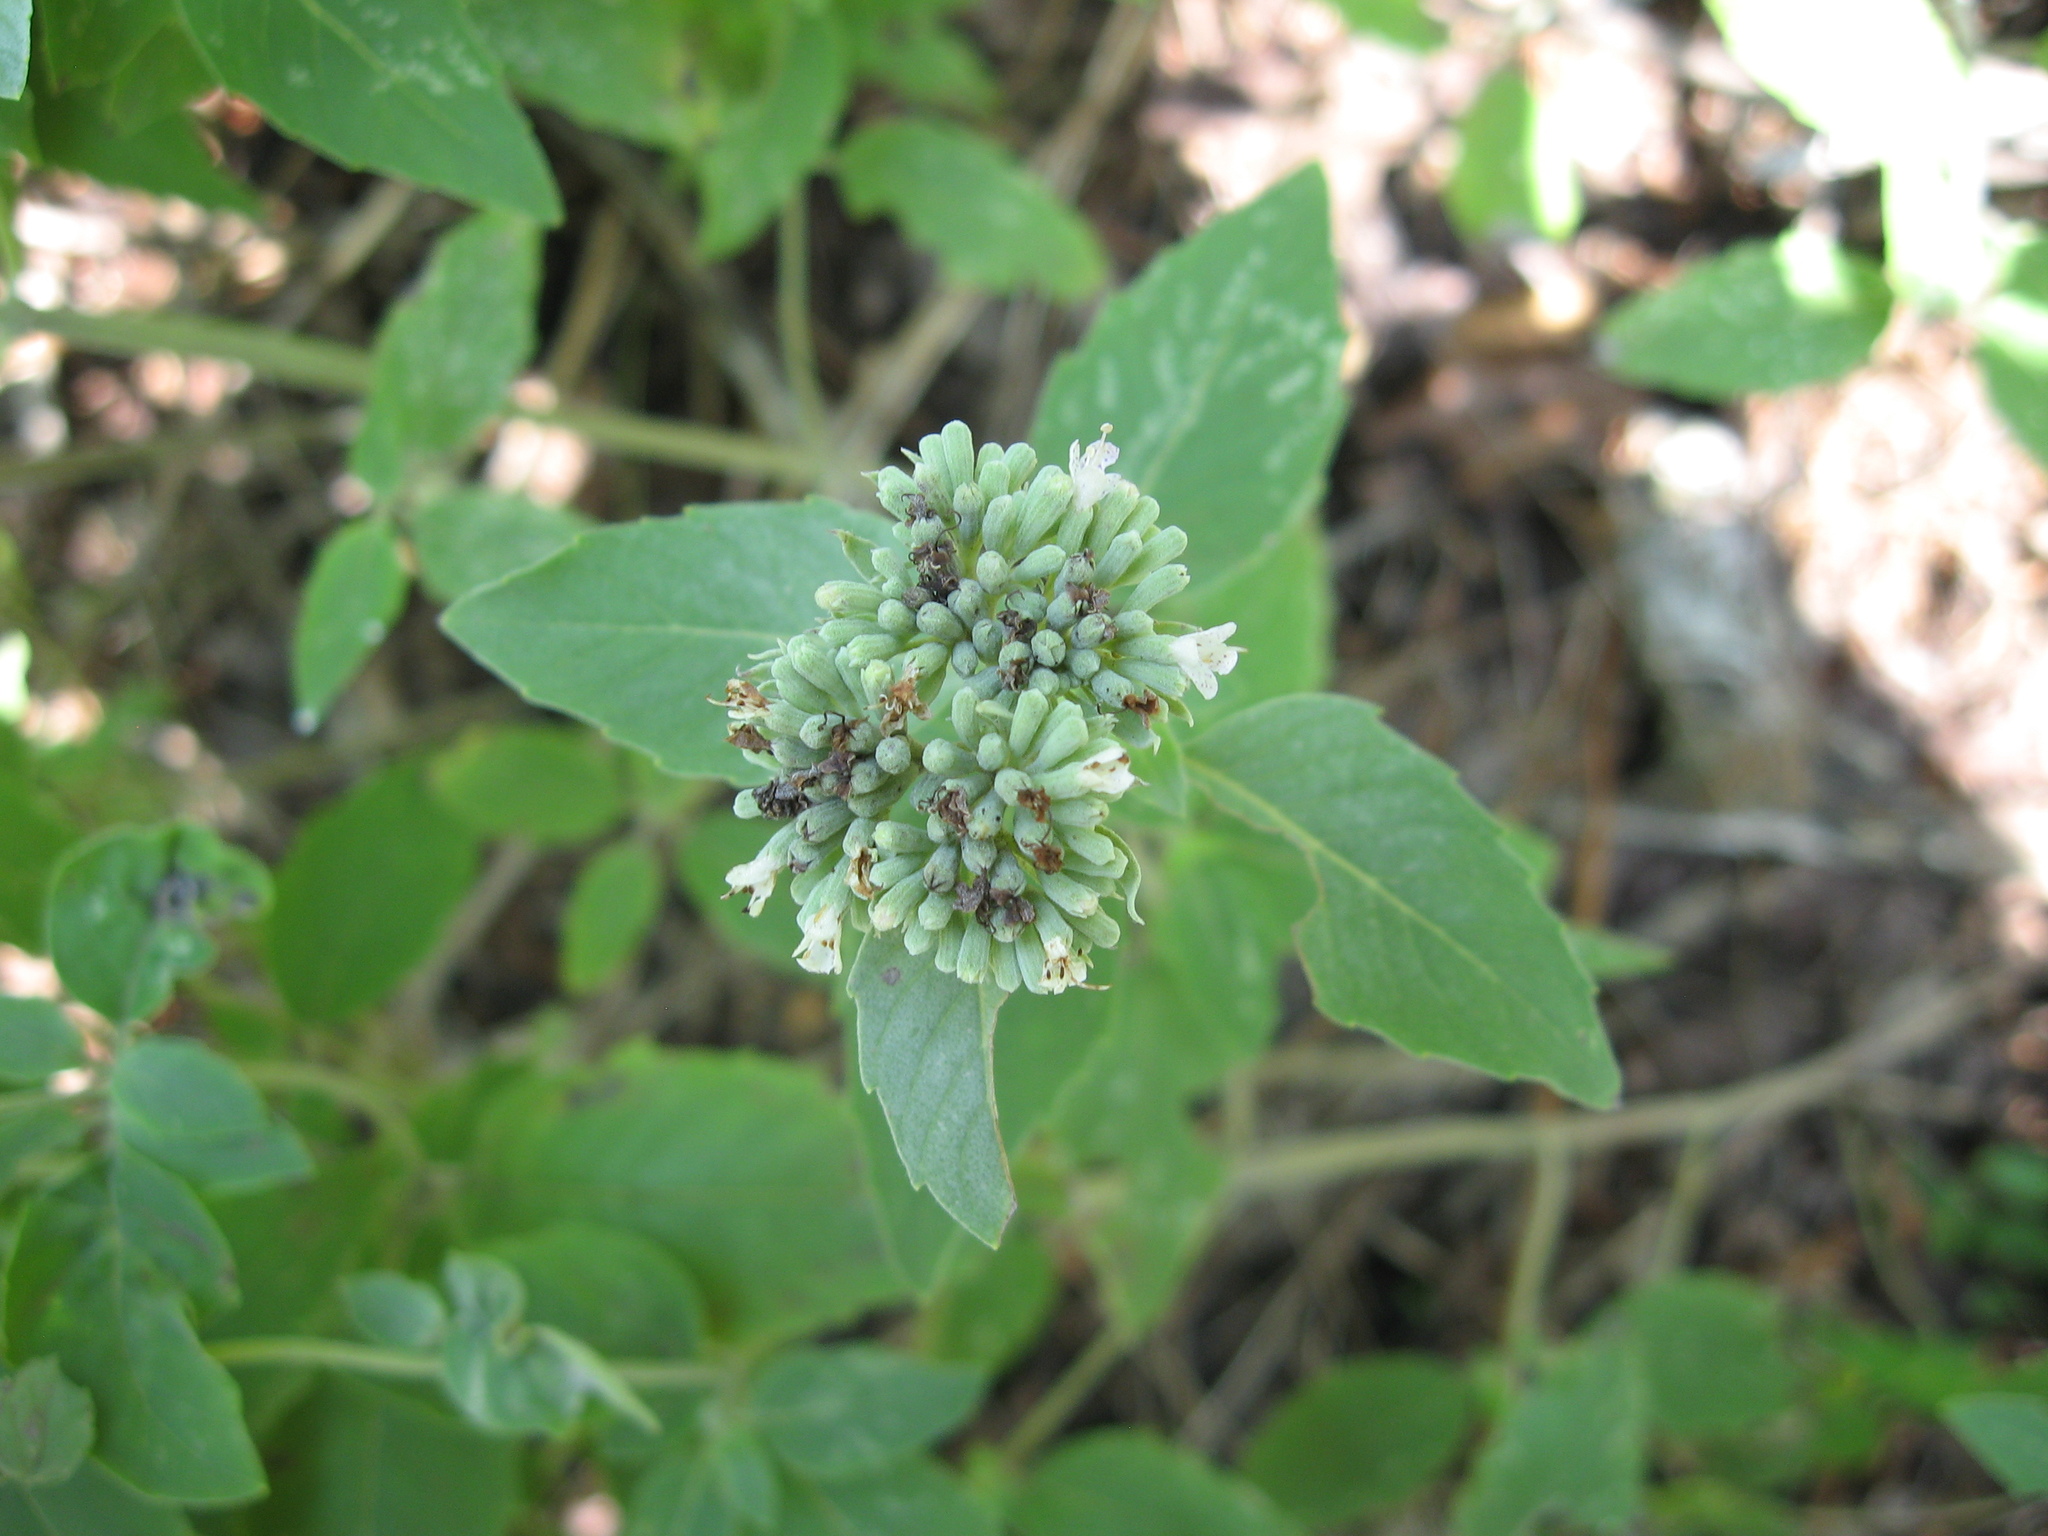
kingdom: Plantae
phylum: Tracheophyta
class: Magnoliopsida
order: Lamiales
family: Lamiaceae
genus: Pycnanthemum
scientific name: Pycnanthemum curvipes
